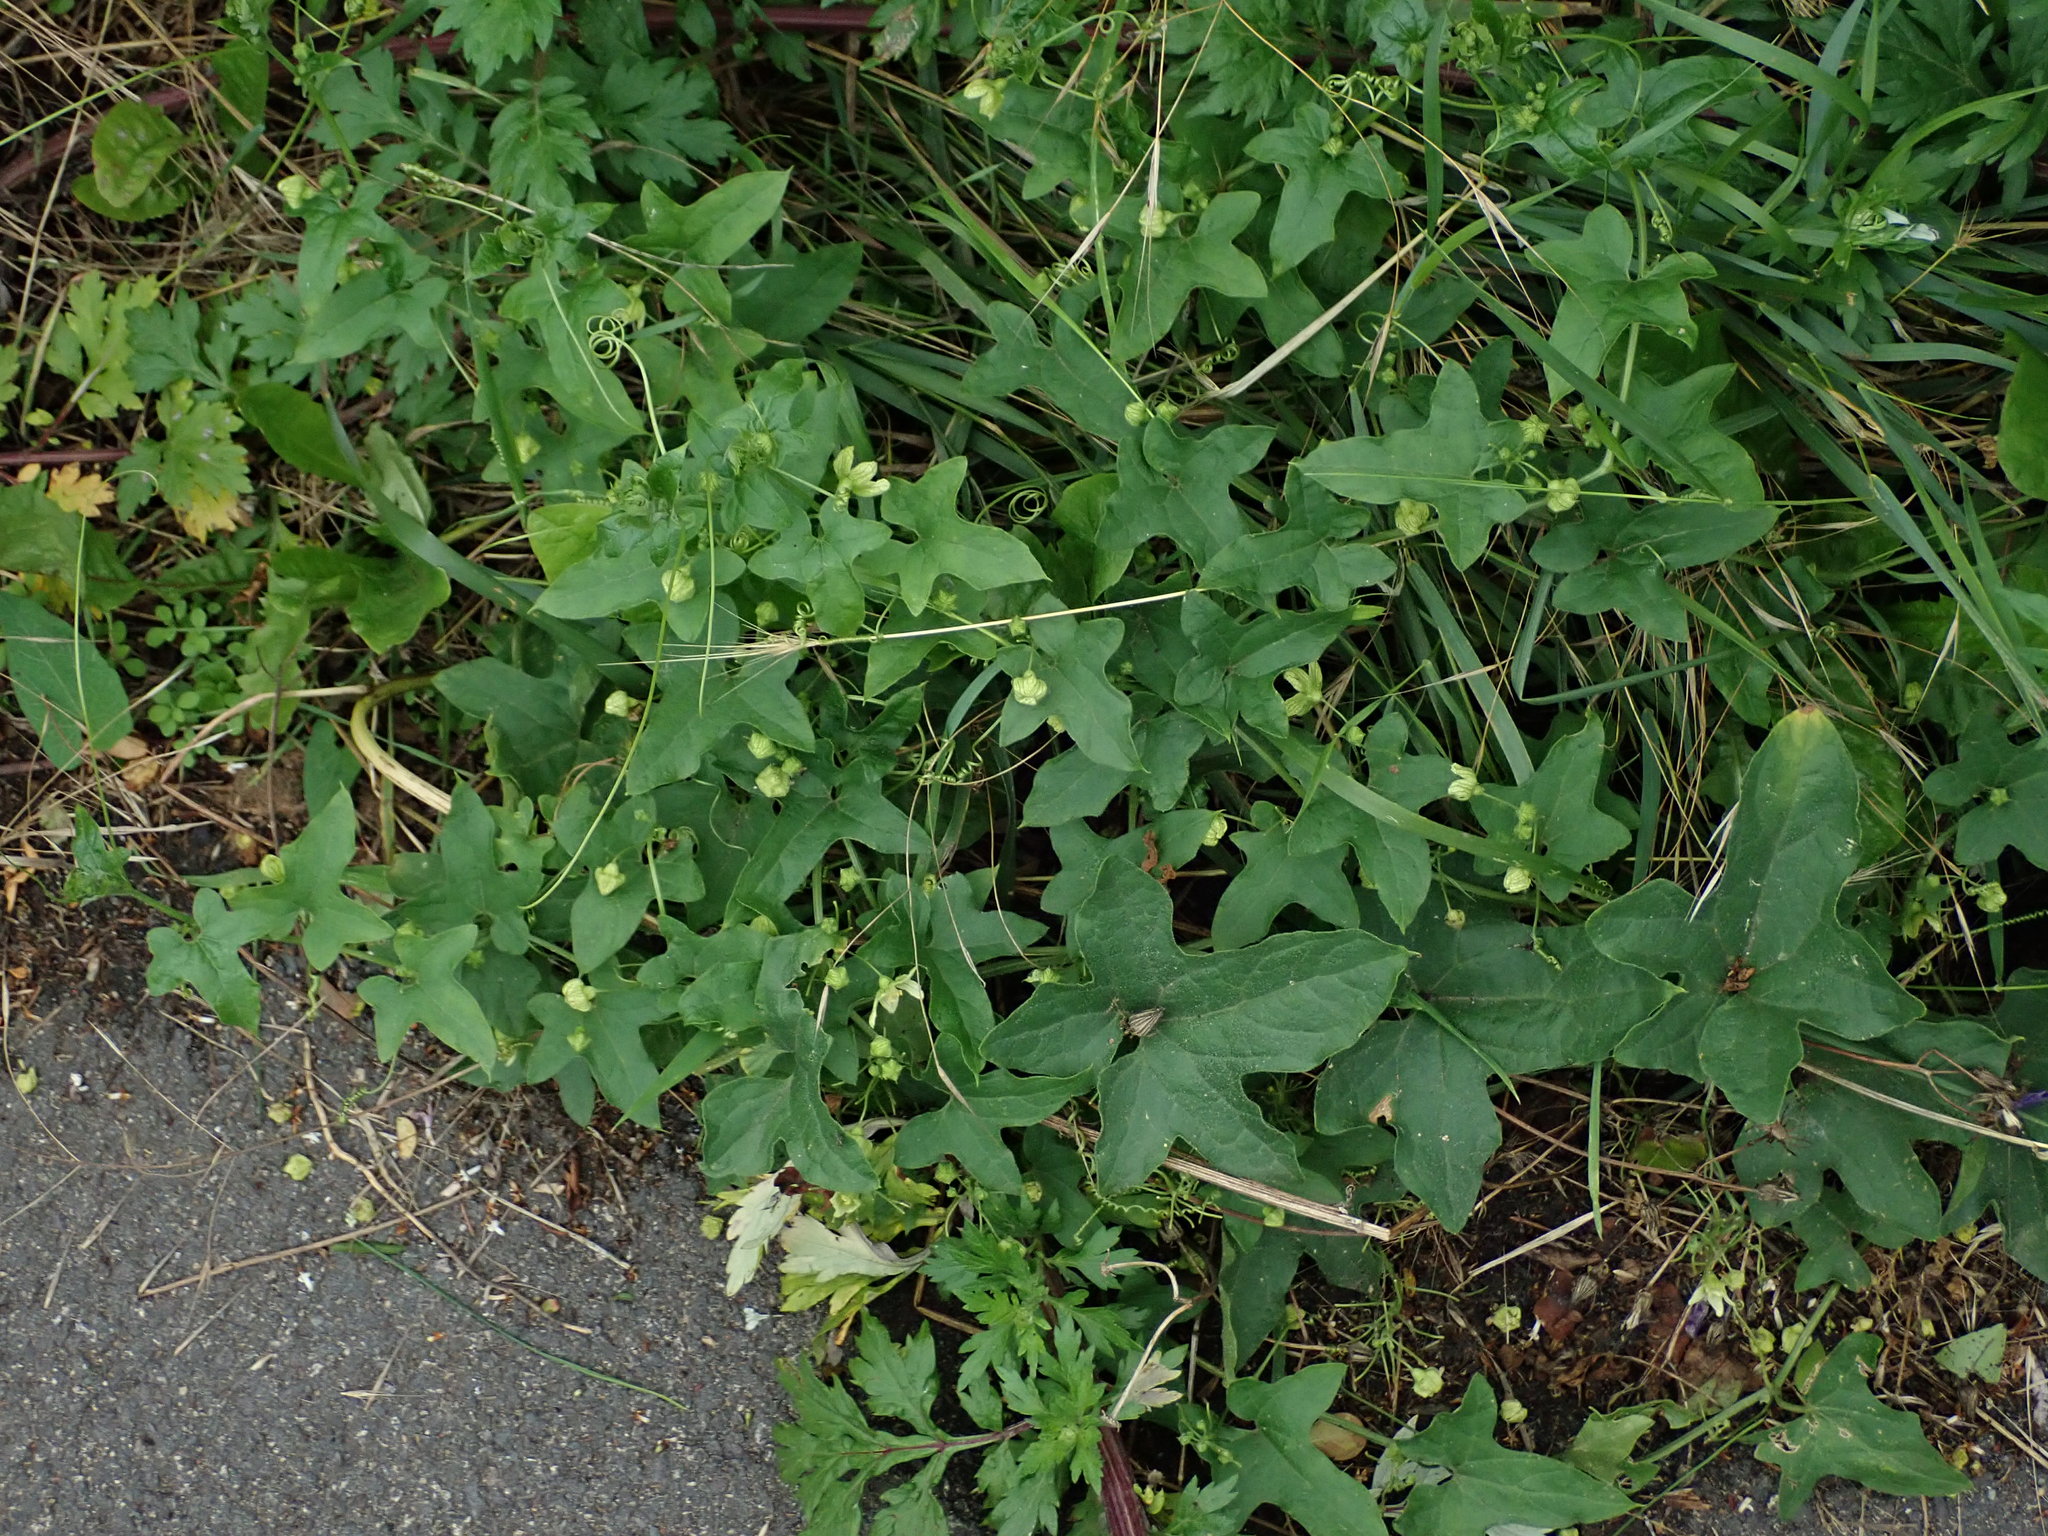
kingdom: Plantae
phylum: Tracheophyta
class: Magnoliopsida
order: Cucurbitales
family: Cucurbitaceae
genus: Bryonia
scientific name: Bryonia cretica
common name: Cretan bryony
